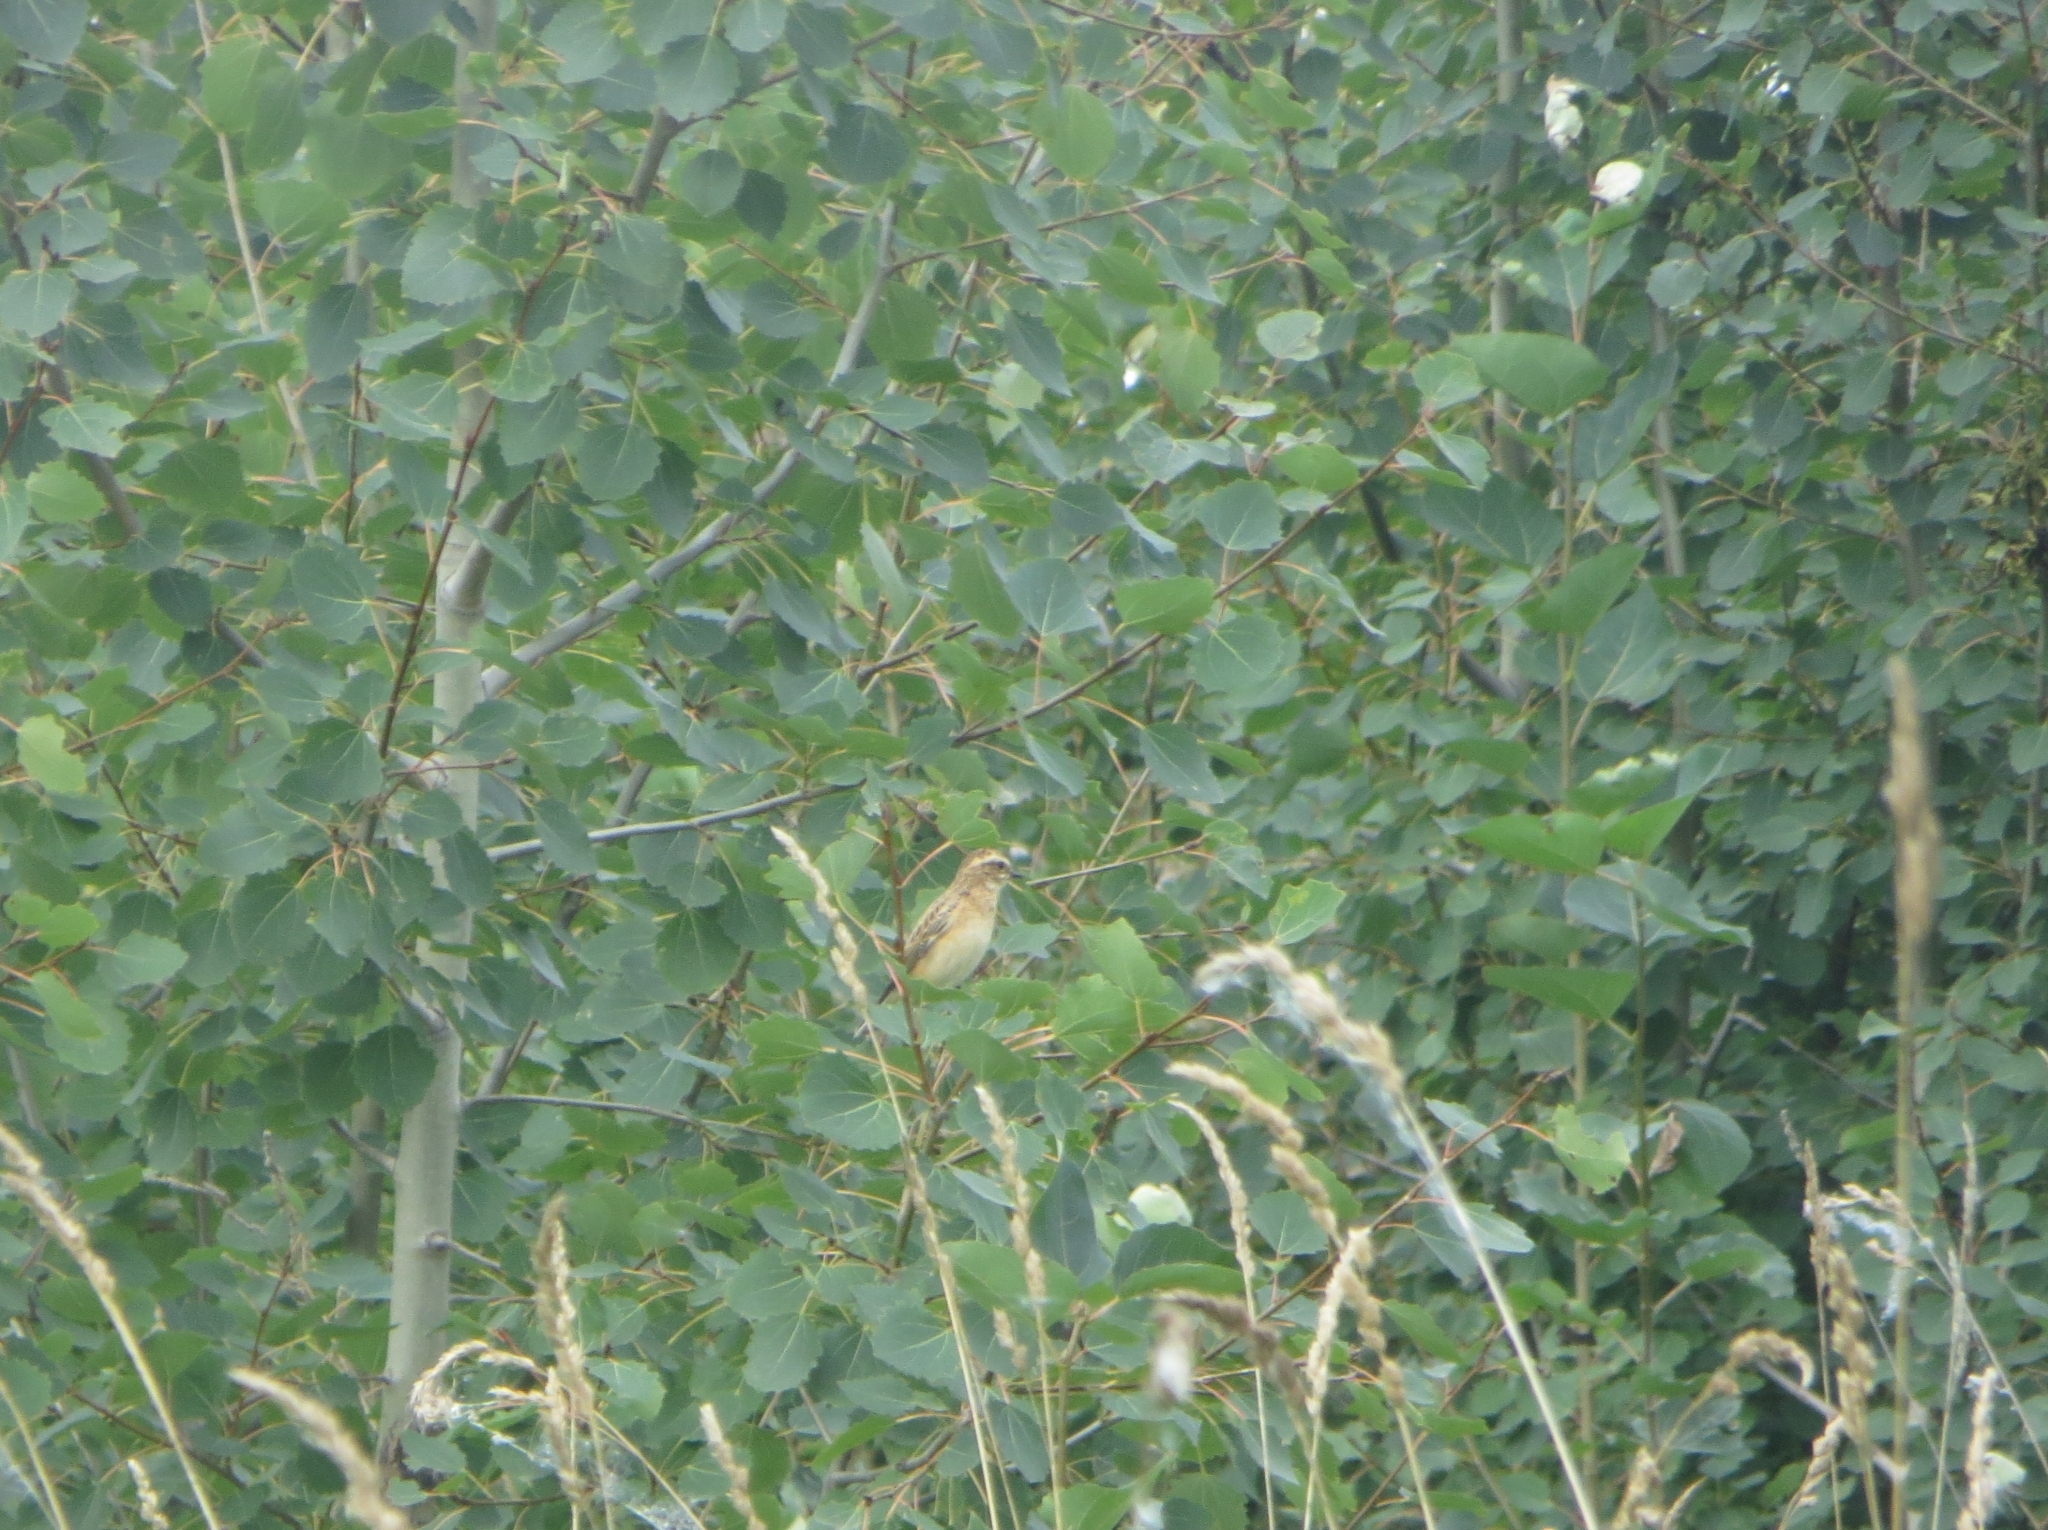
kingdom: Animalia
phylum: Chordata
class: Aves
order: Passeriformes
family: Muscicapidae
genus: Saxicola
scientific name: Saxicola rubetra
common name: Whinchat
